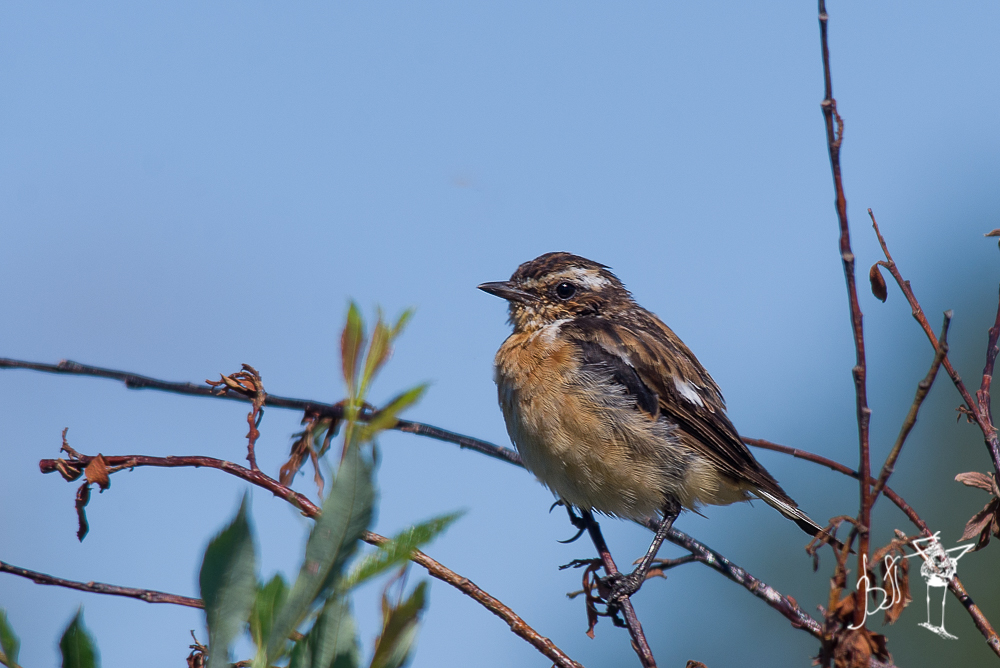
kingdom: Animalia
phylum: Chordata
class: Aves
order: Passeriformes
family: Muscicapidae
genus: Saxicola
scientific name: Saxicola rubetra
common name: Whinchat
